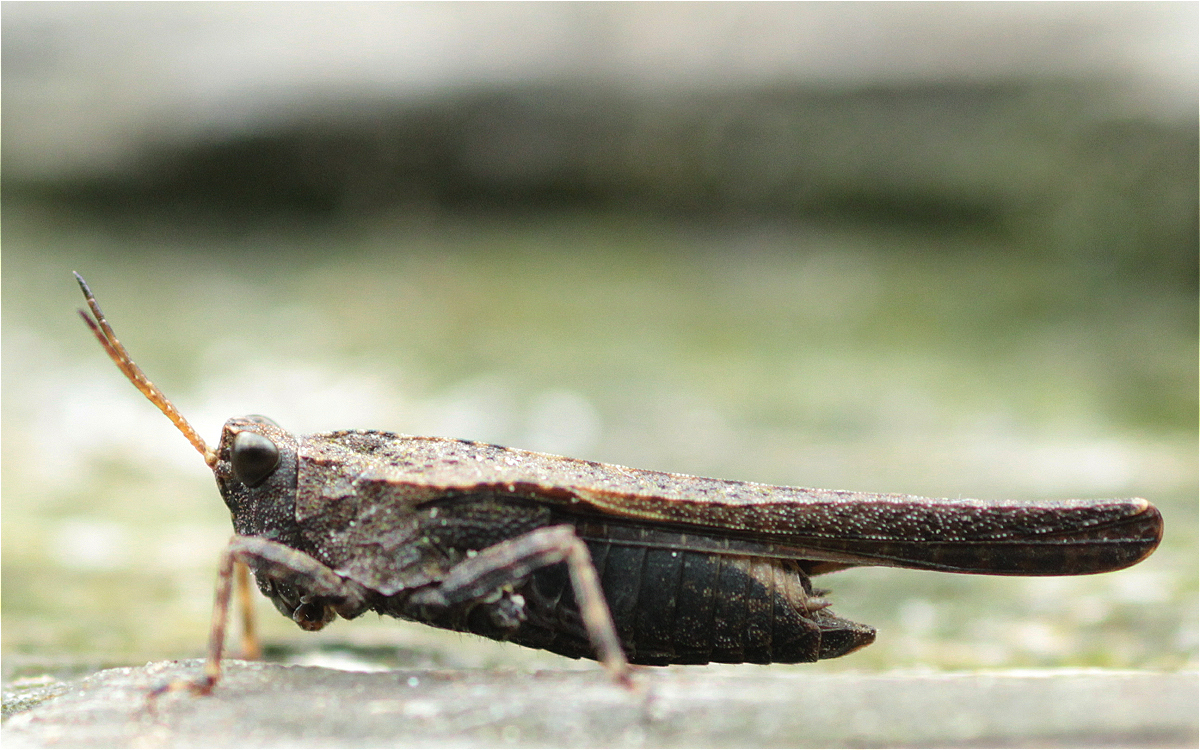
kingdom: Animalia
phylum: Arthropoda
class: Insecta
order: Orthoptera
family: Tetrigidae
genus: Tetrix
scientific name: Tetrix subulata
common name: Slender ground-hopper
